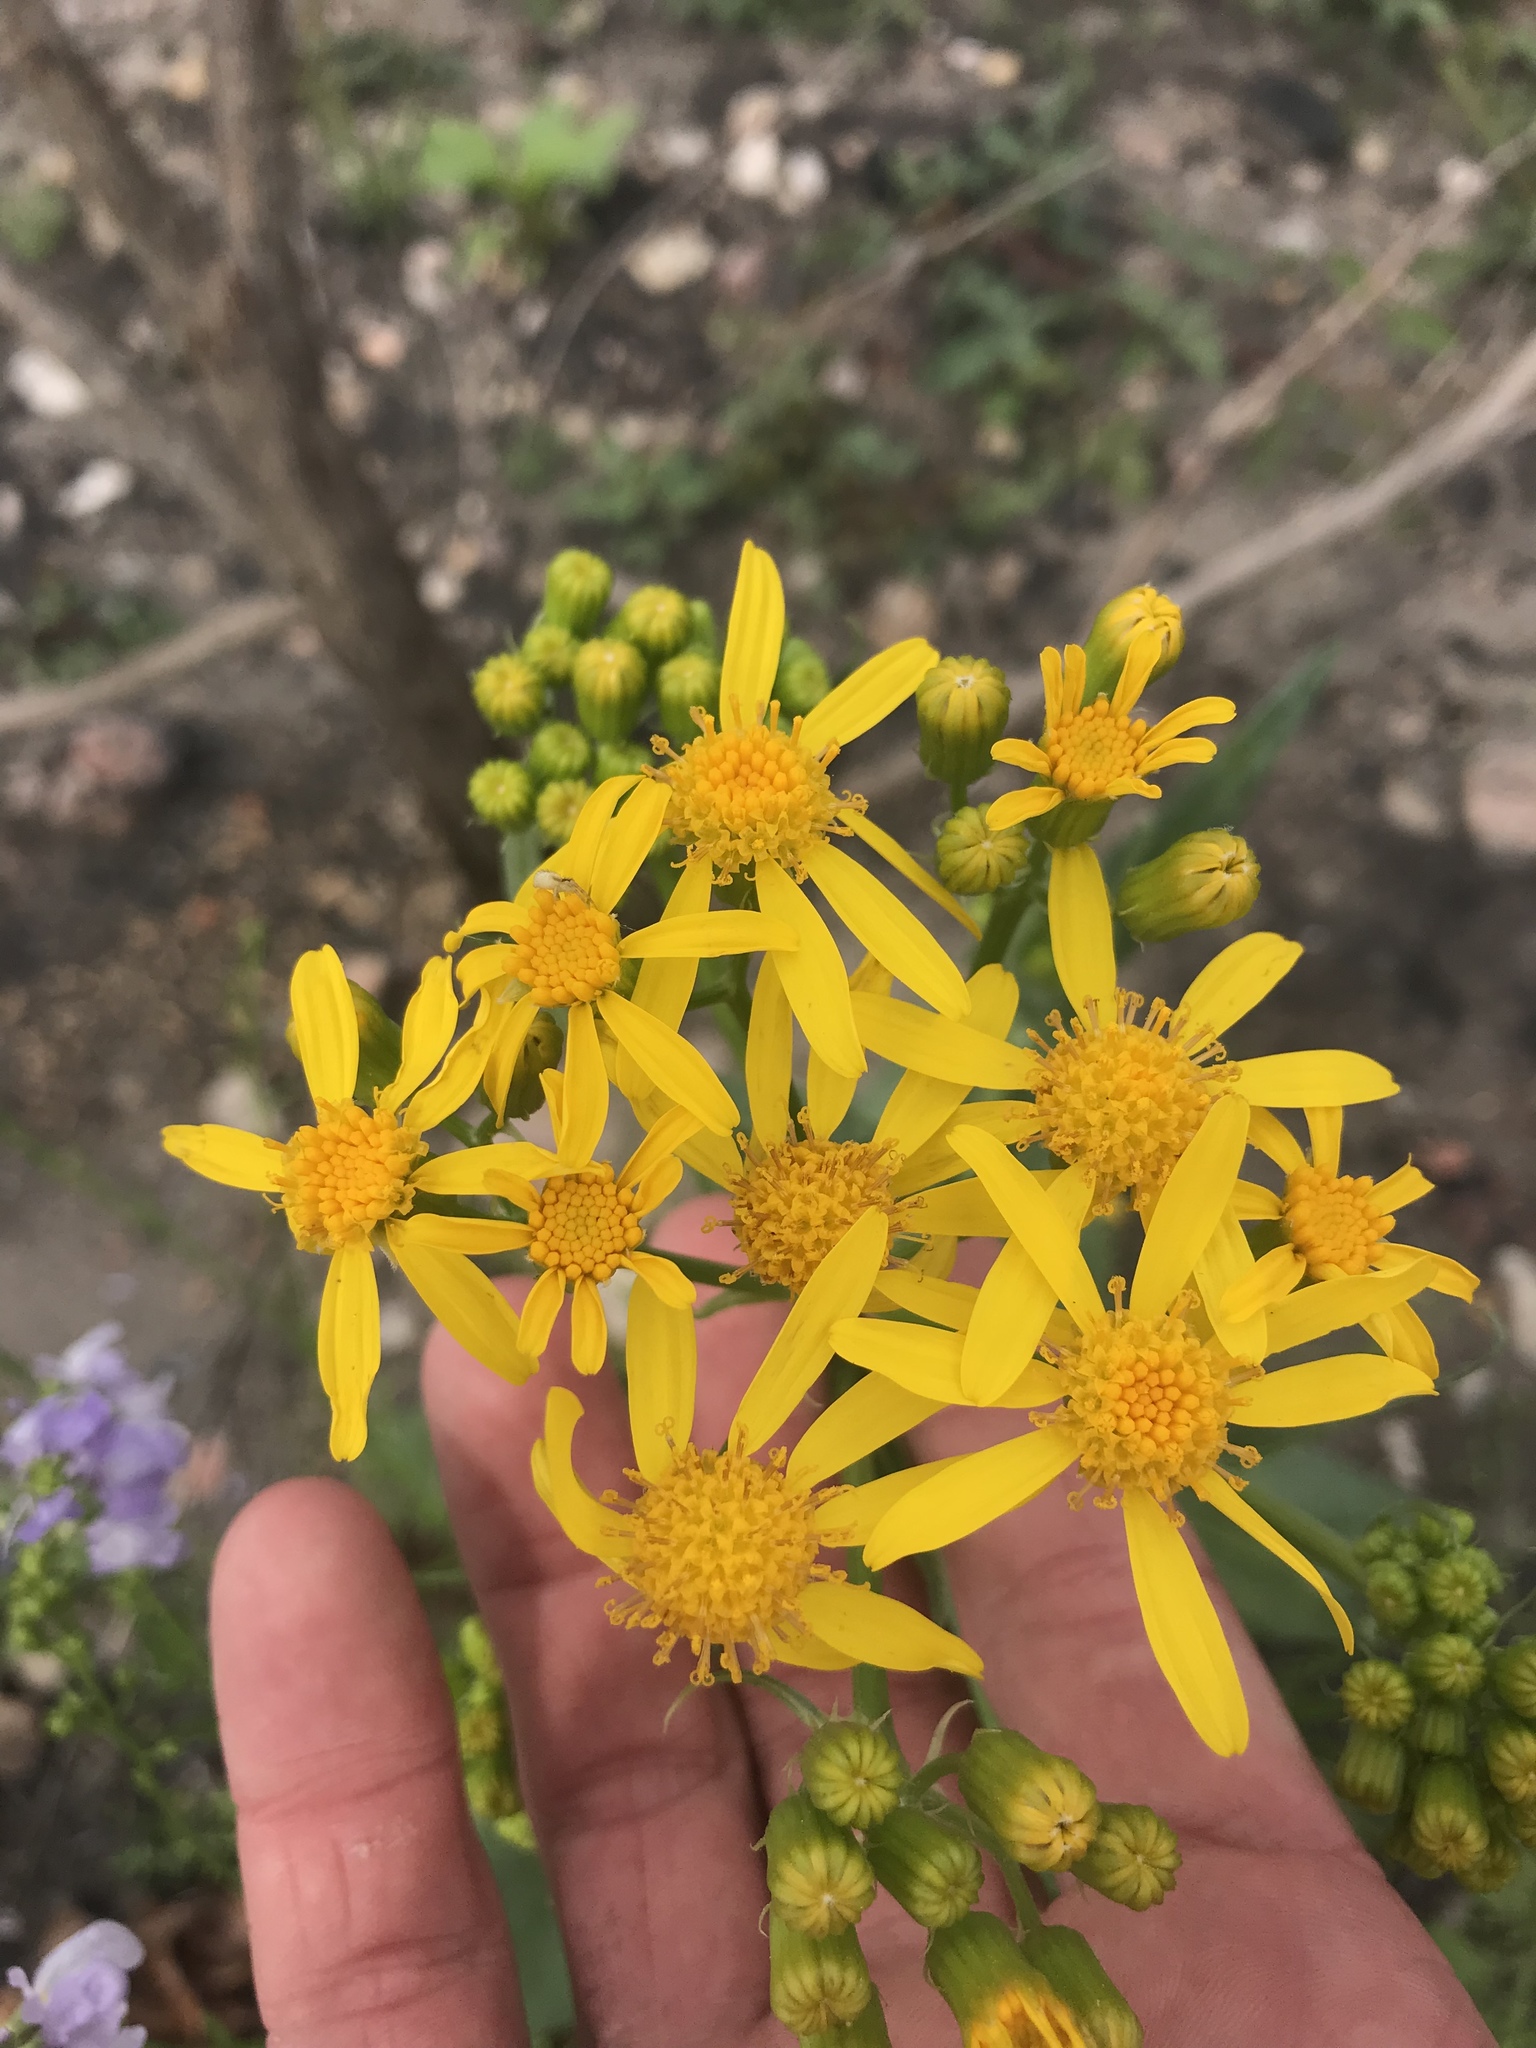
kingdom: Plantae
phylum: Tracheophyta
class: Magnoliopsida
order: Asterales
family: Asteraceae
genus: Senecio
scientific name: Senecio ampullaceus
